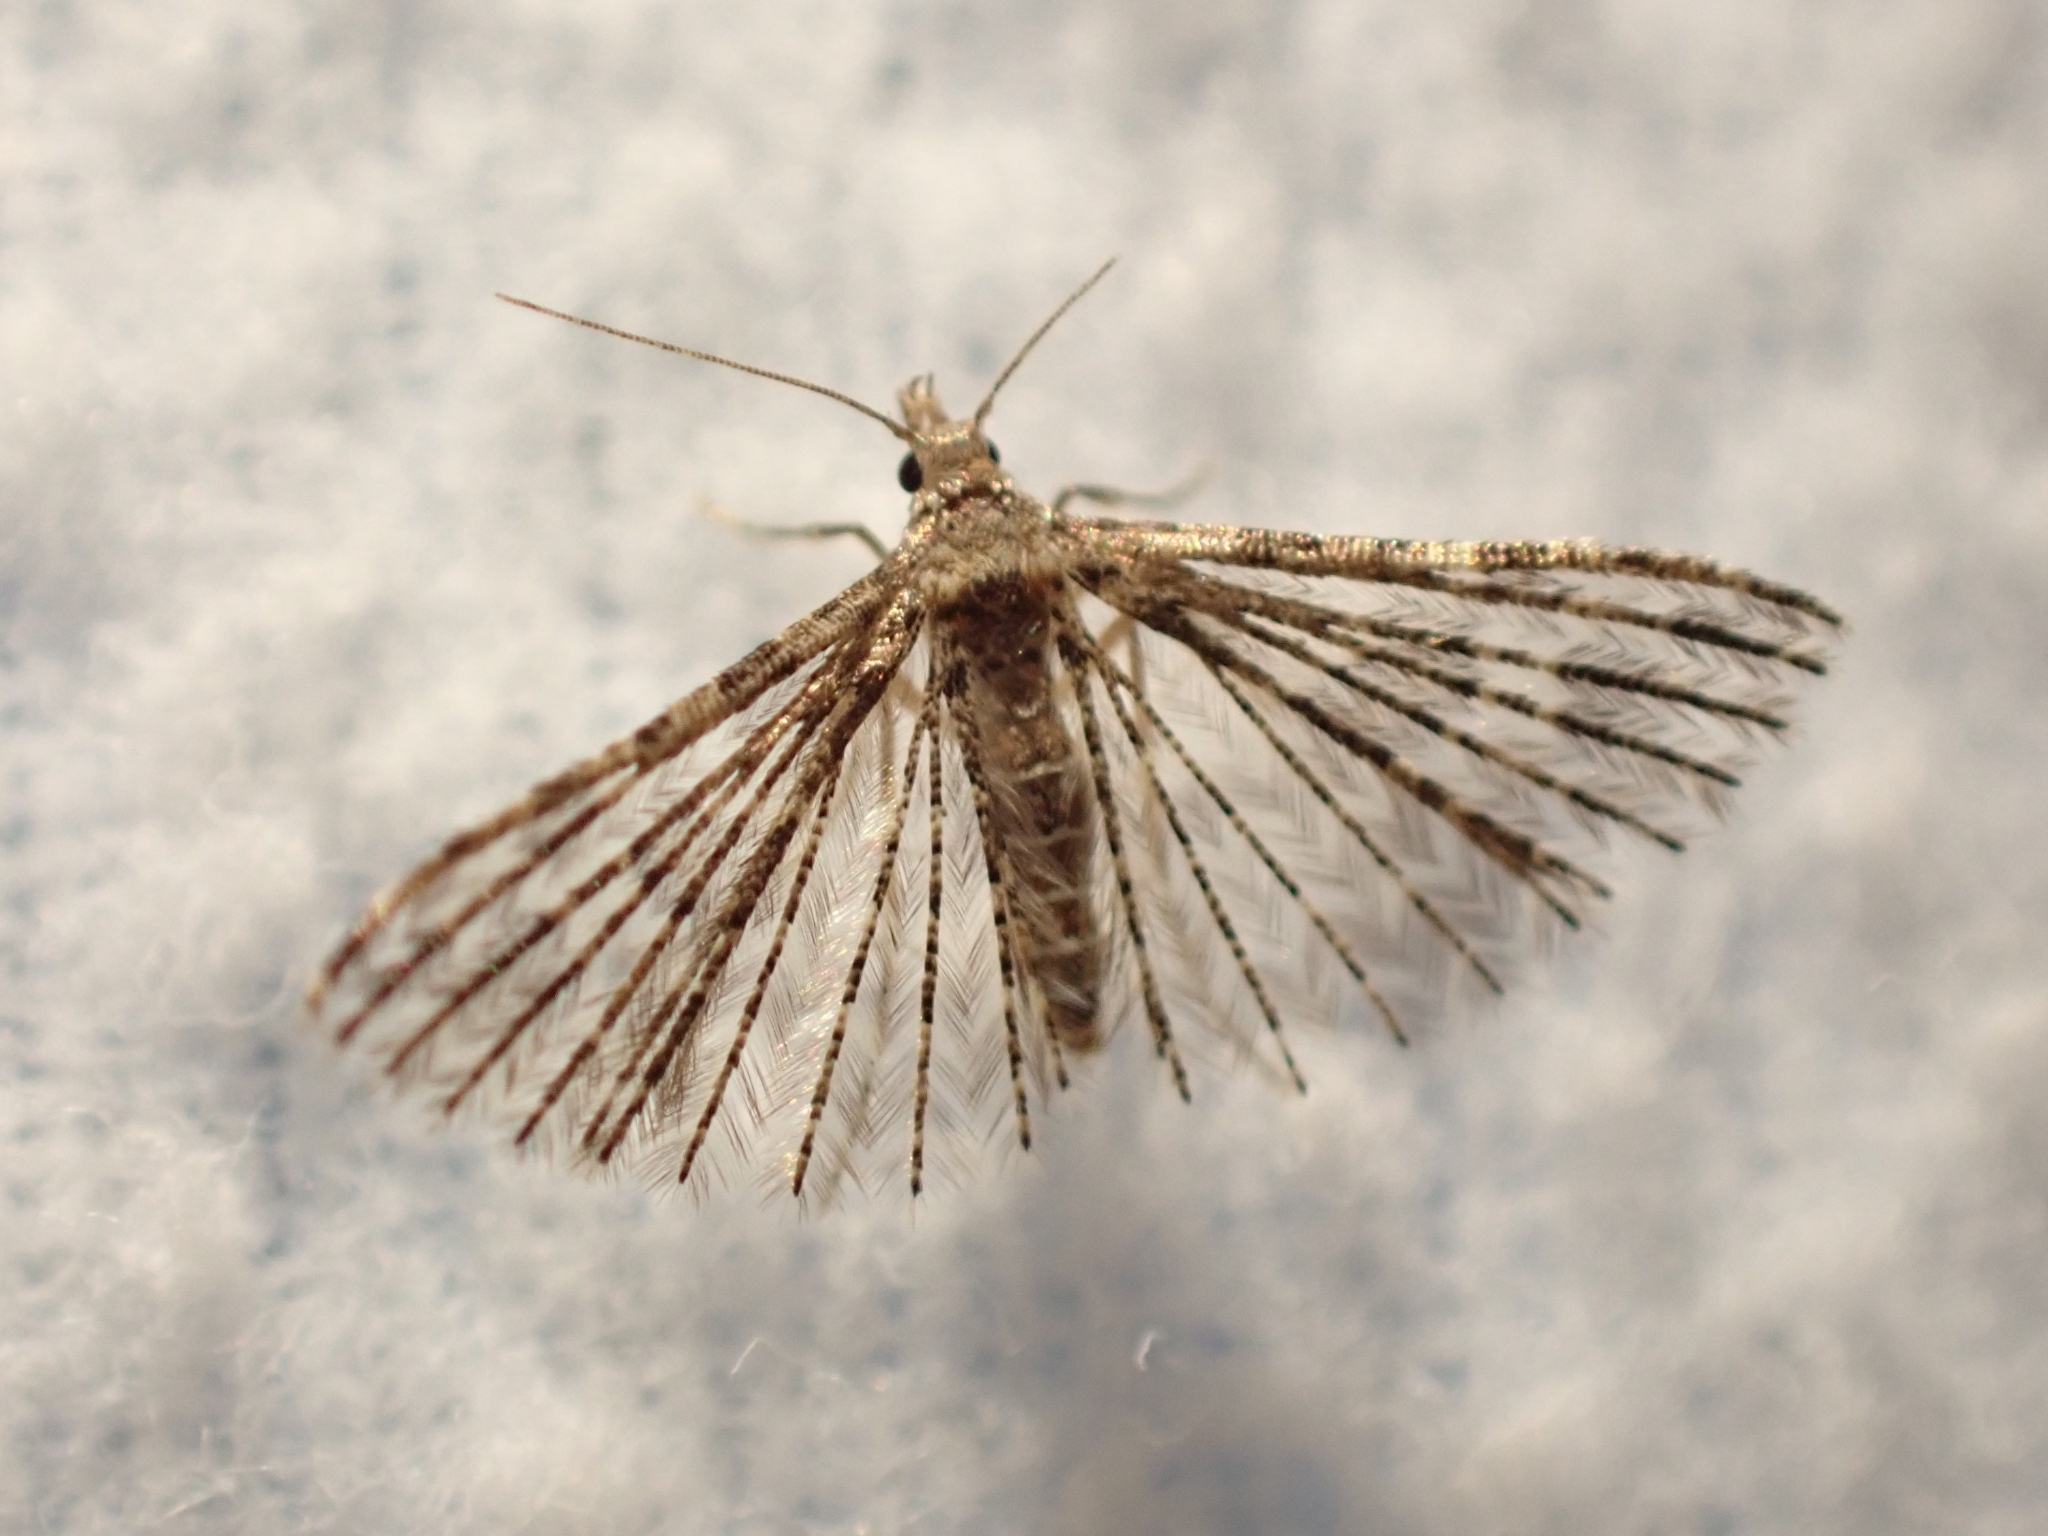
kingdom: Animalia
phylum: Arthropoda
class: Insecta
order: Lepidoptera
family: Alucitidae
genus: Alucita
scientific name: Alucita montana
